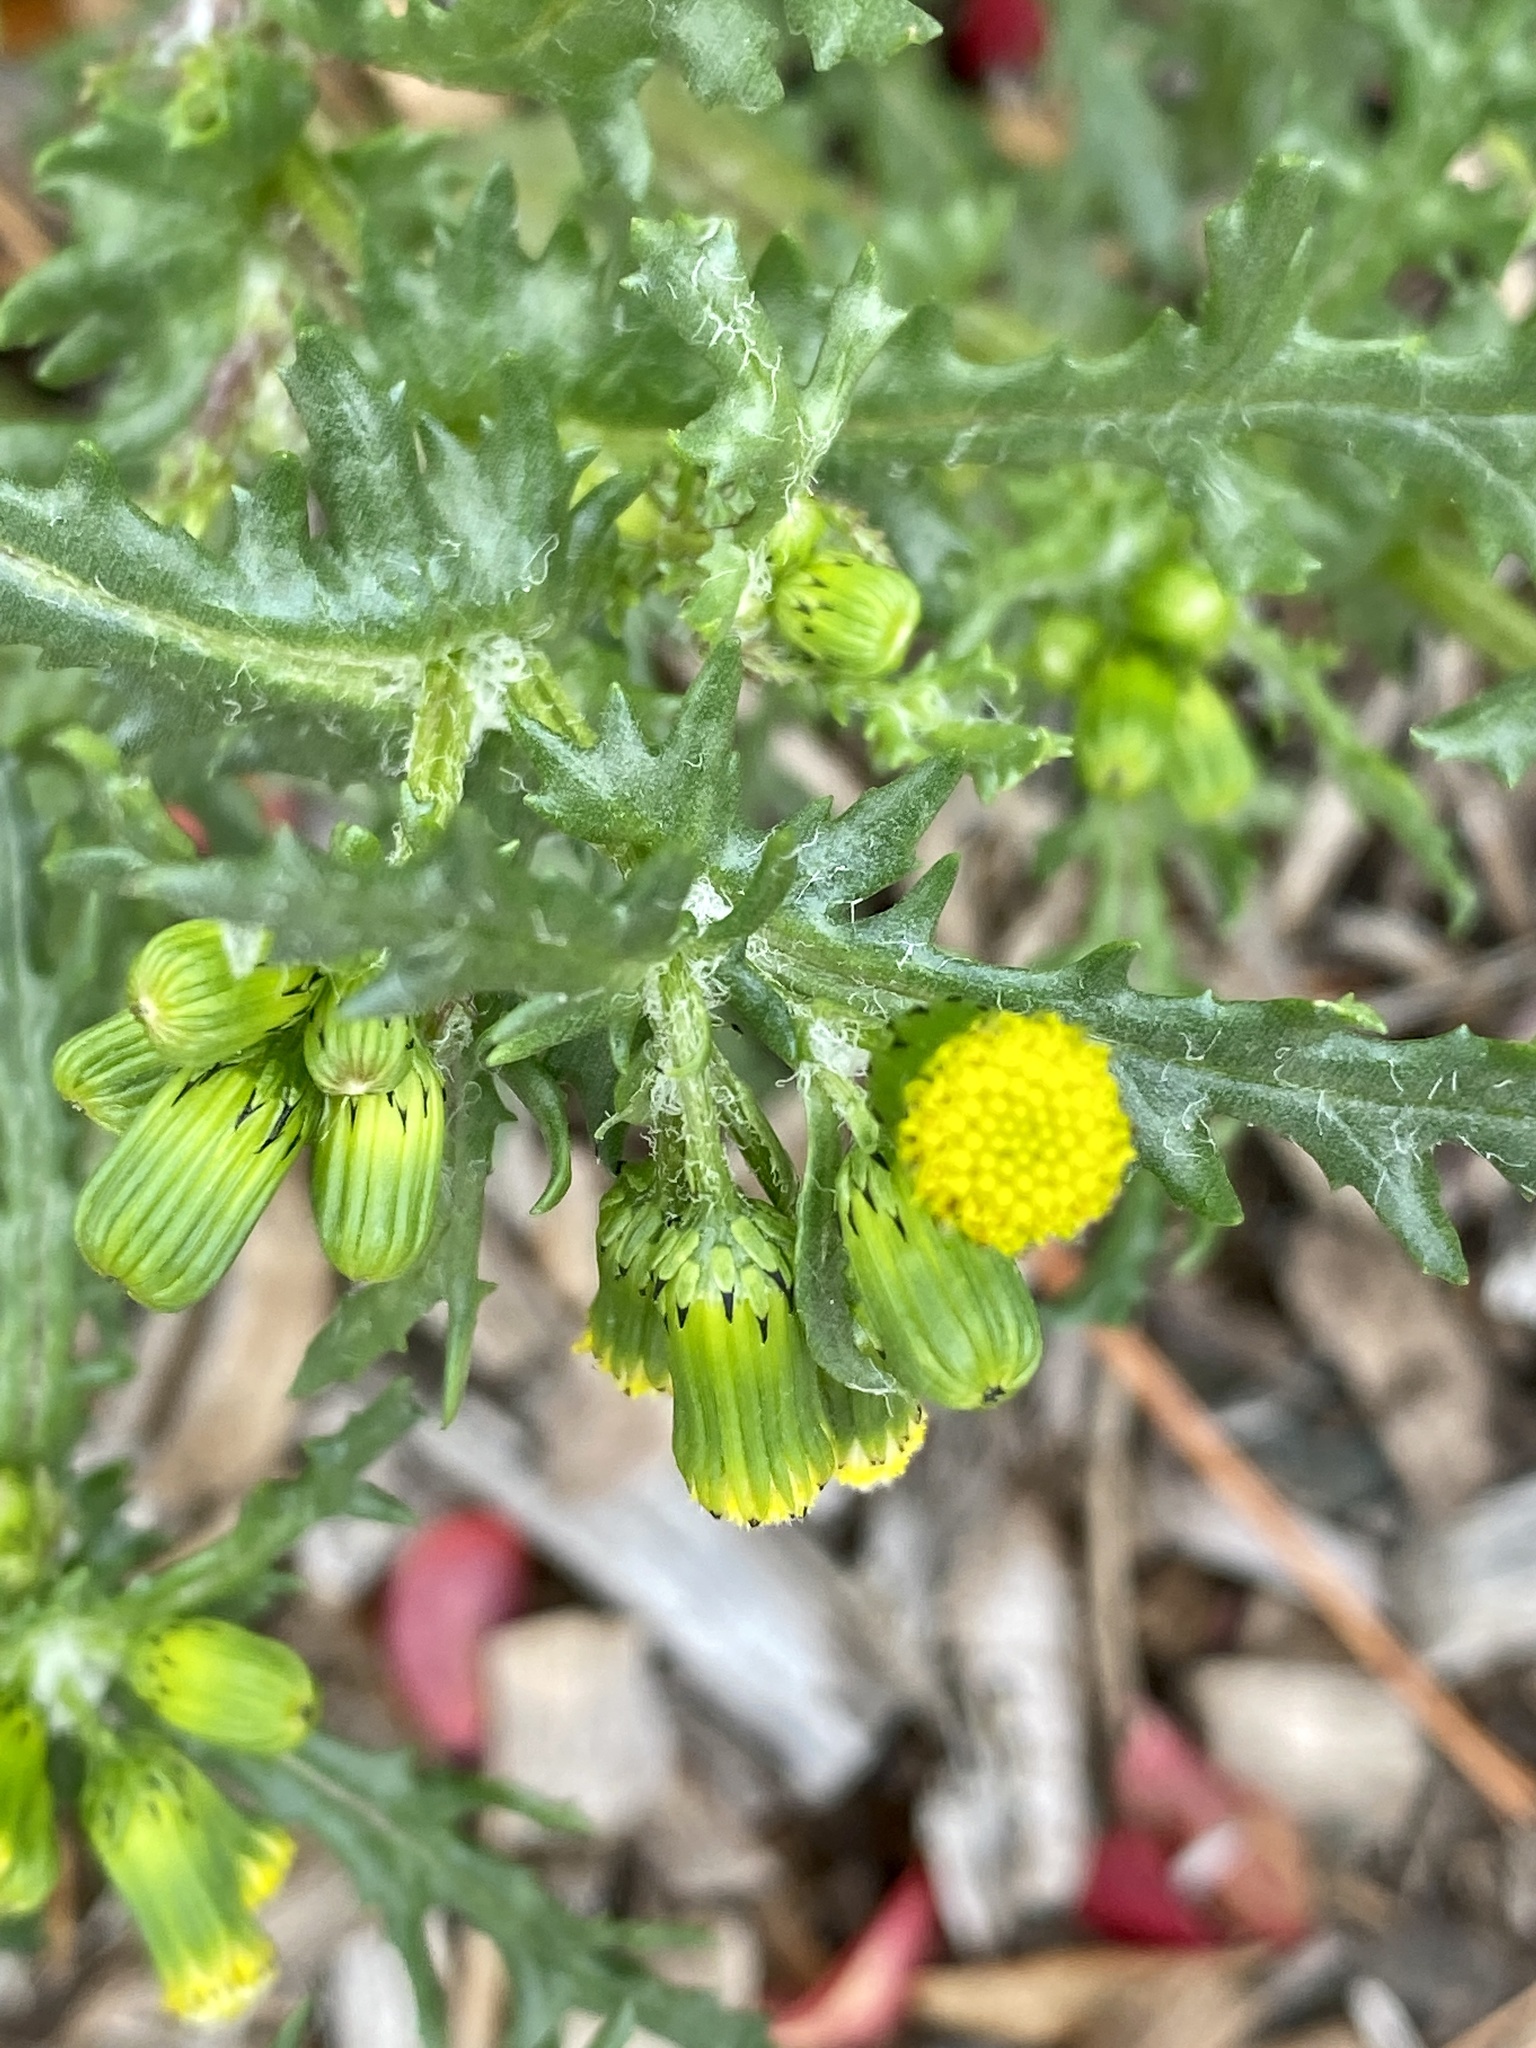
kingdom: Plantae
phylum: Tracheophyta
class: Magnoliopsida
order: Asterales
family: Asteraceae
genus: Senecio
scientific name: Senecio vulgaris
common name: Old-man-in-the-spring
